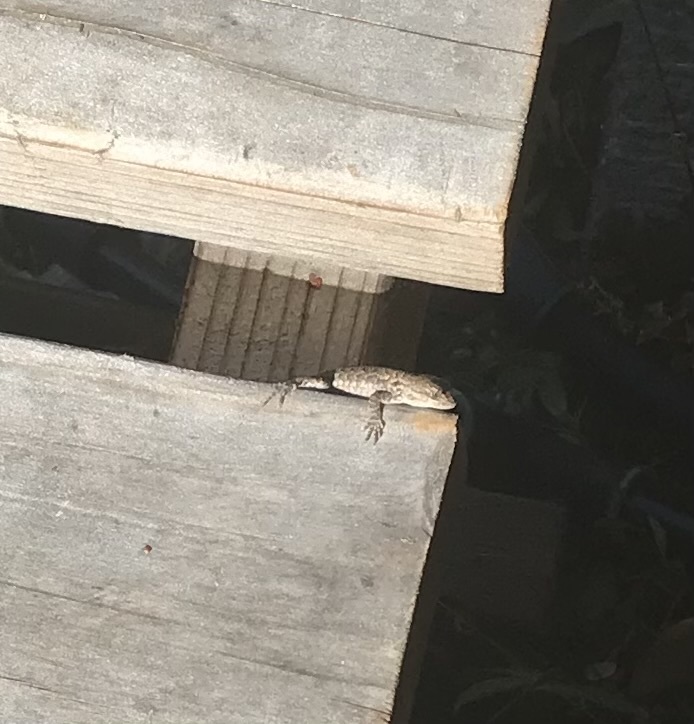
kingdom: Animalia
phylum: Chordata
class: Squamata
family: Phrynosomatidae
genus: Sceloporus
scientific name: Sceloporus occidentalis
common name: Western fence lizard
